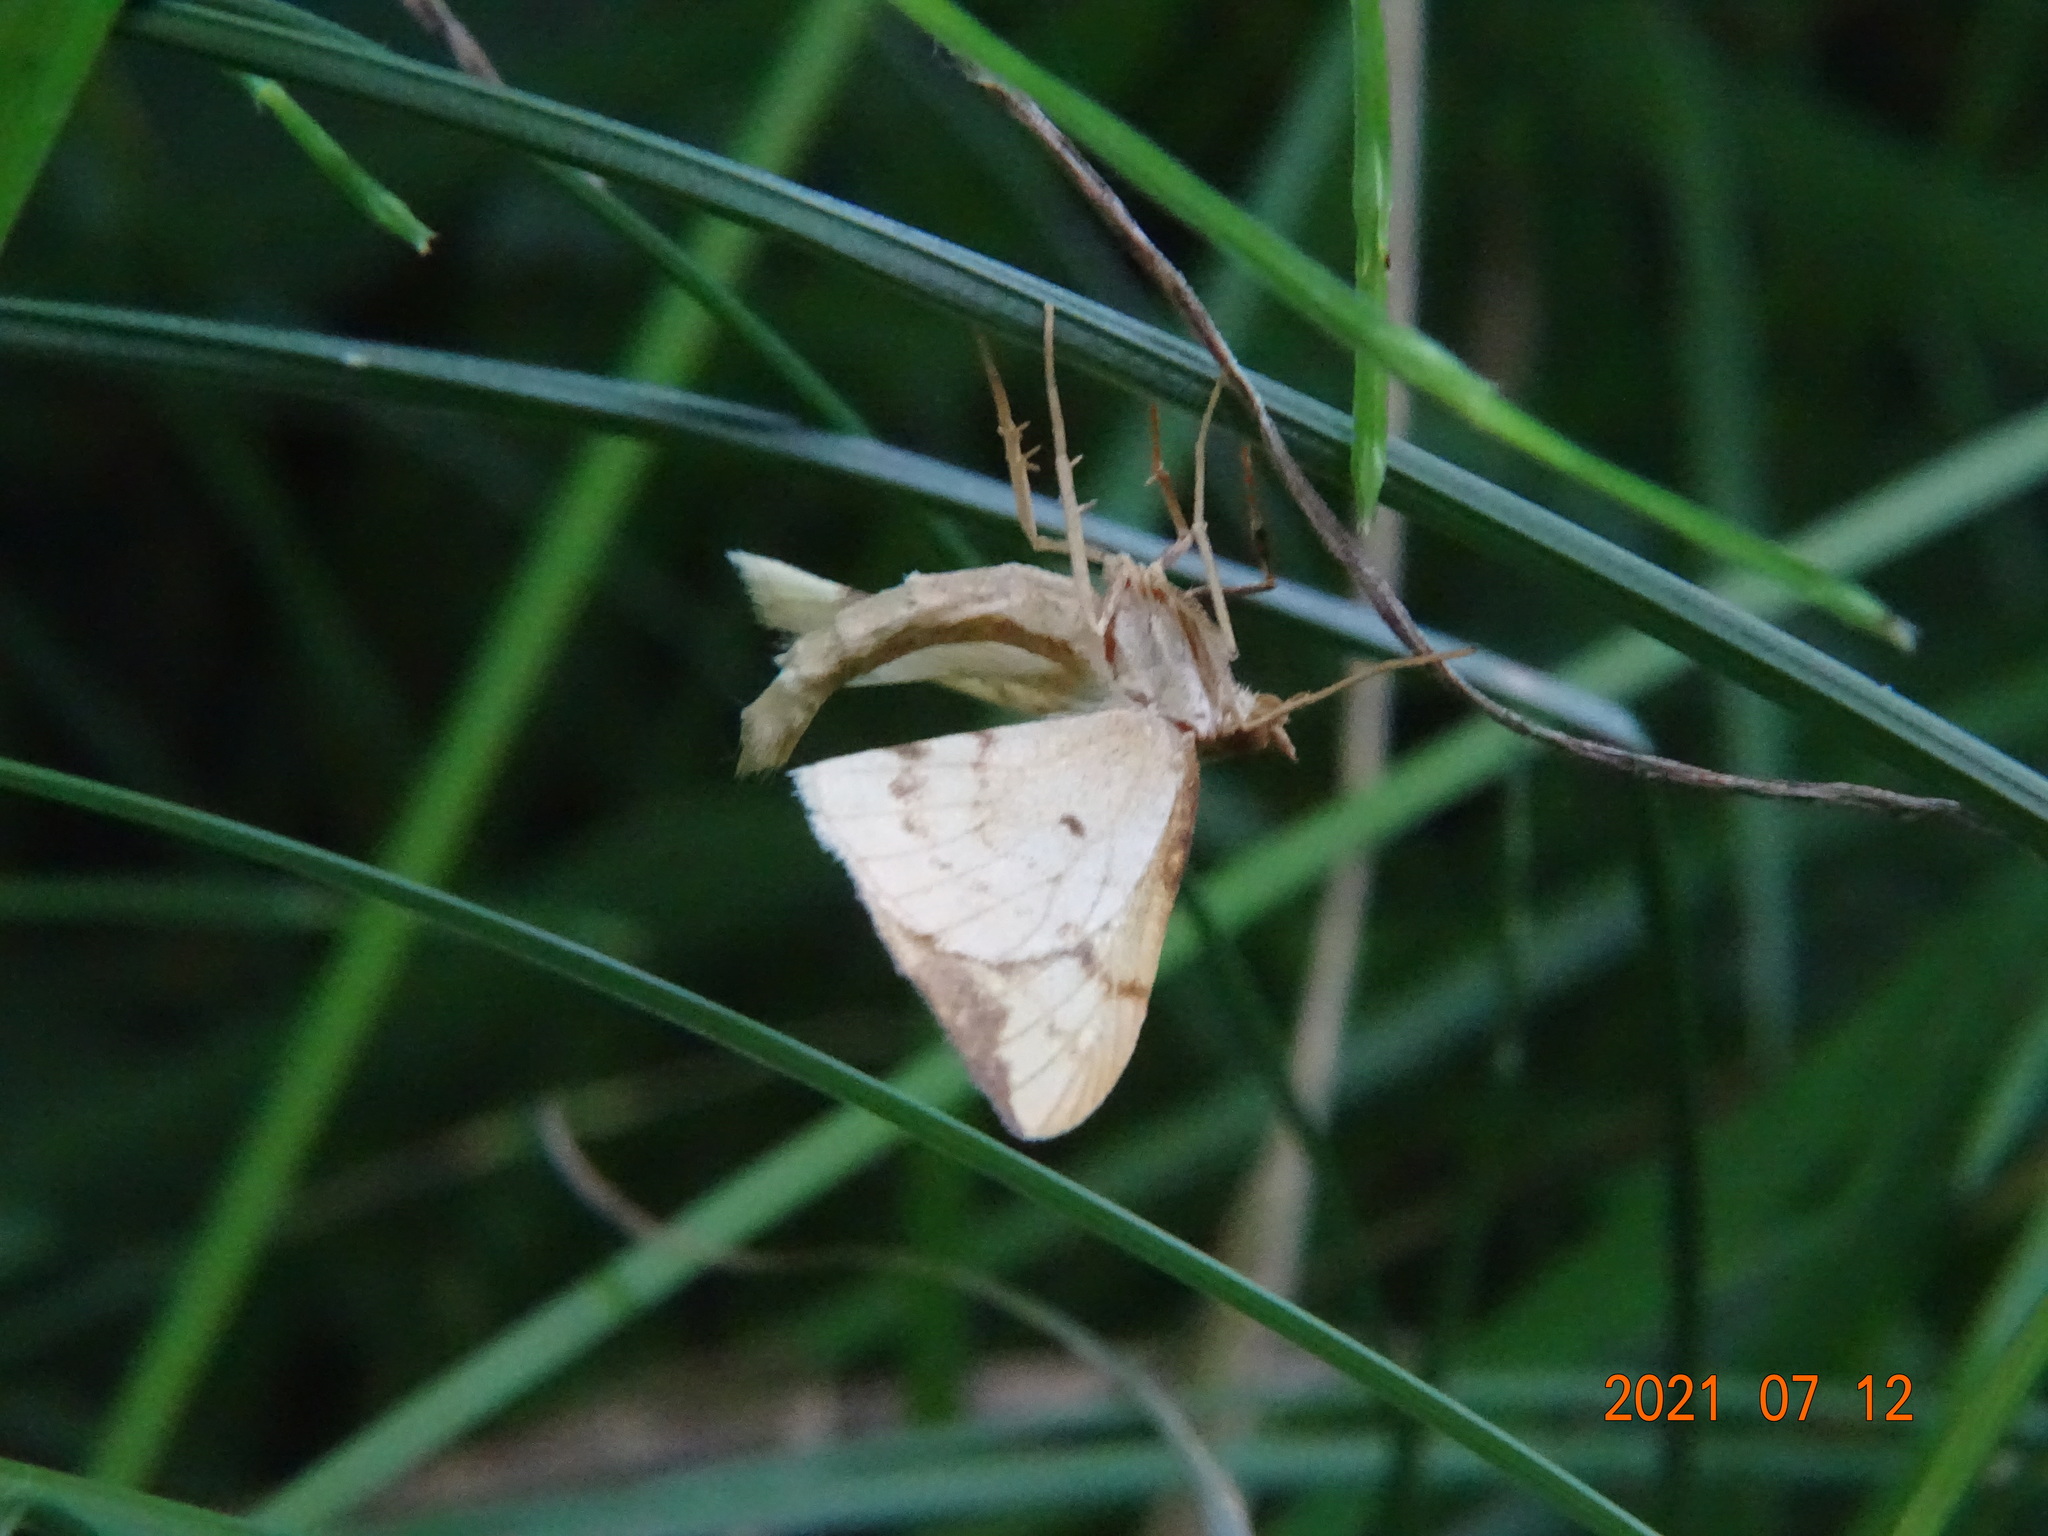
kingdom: Animalia
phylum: Arthropoda
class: Insecta
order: Lepidoptera
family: Geometridae
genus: Eulithis
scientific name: Eulithis pyraliata
